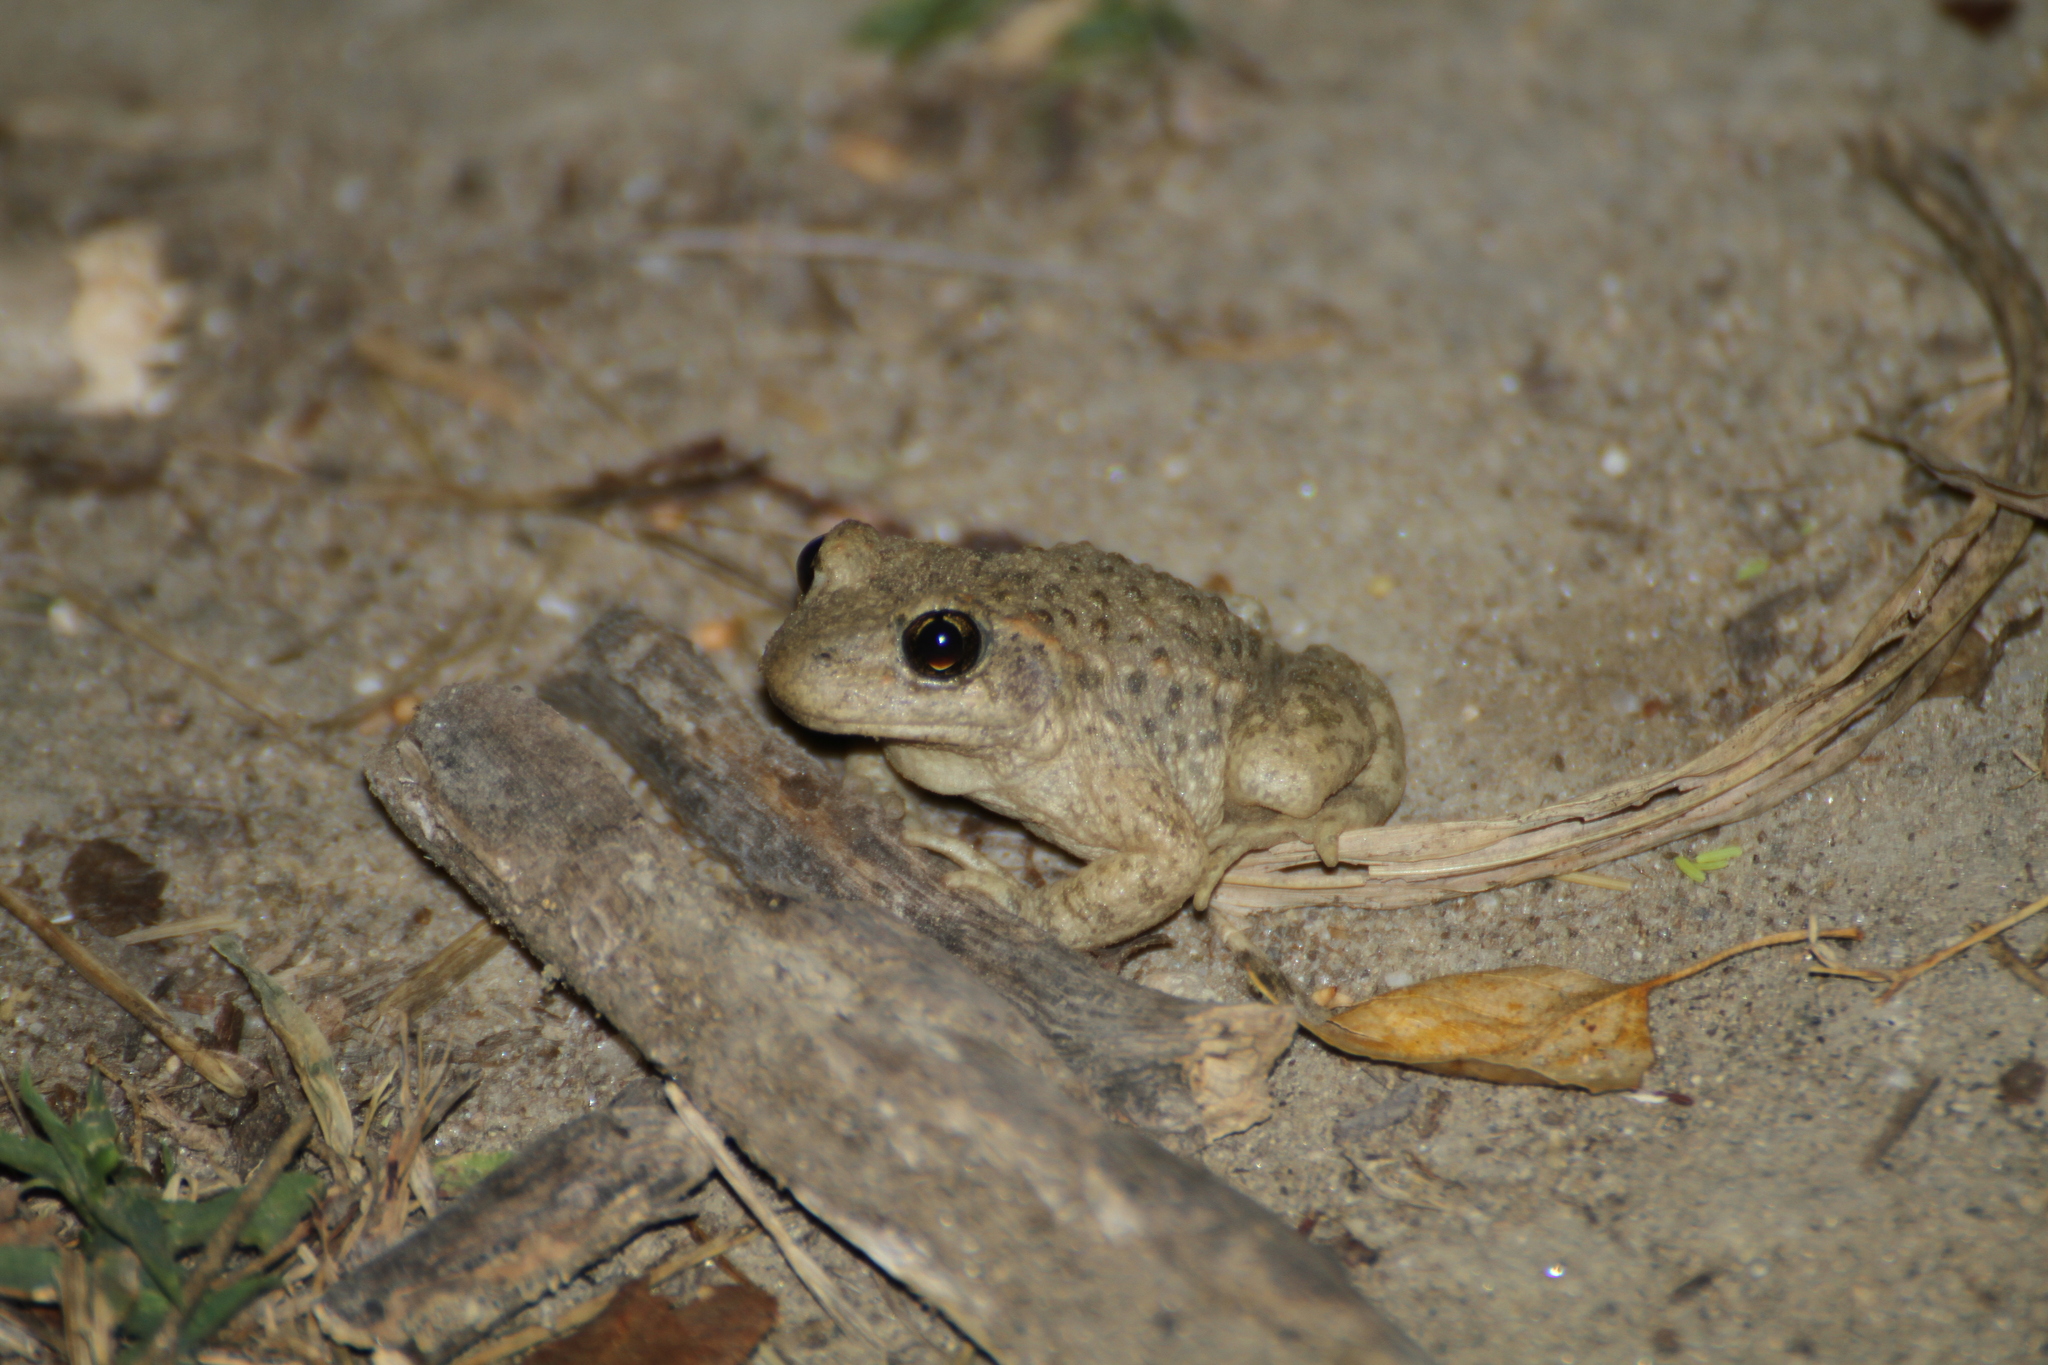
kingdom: Animalia
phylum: Chordata
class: Amphibia
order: Anura
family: Alytidae
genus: Alytes
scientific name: Alytes obstetricans
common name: Midwife toad
